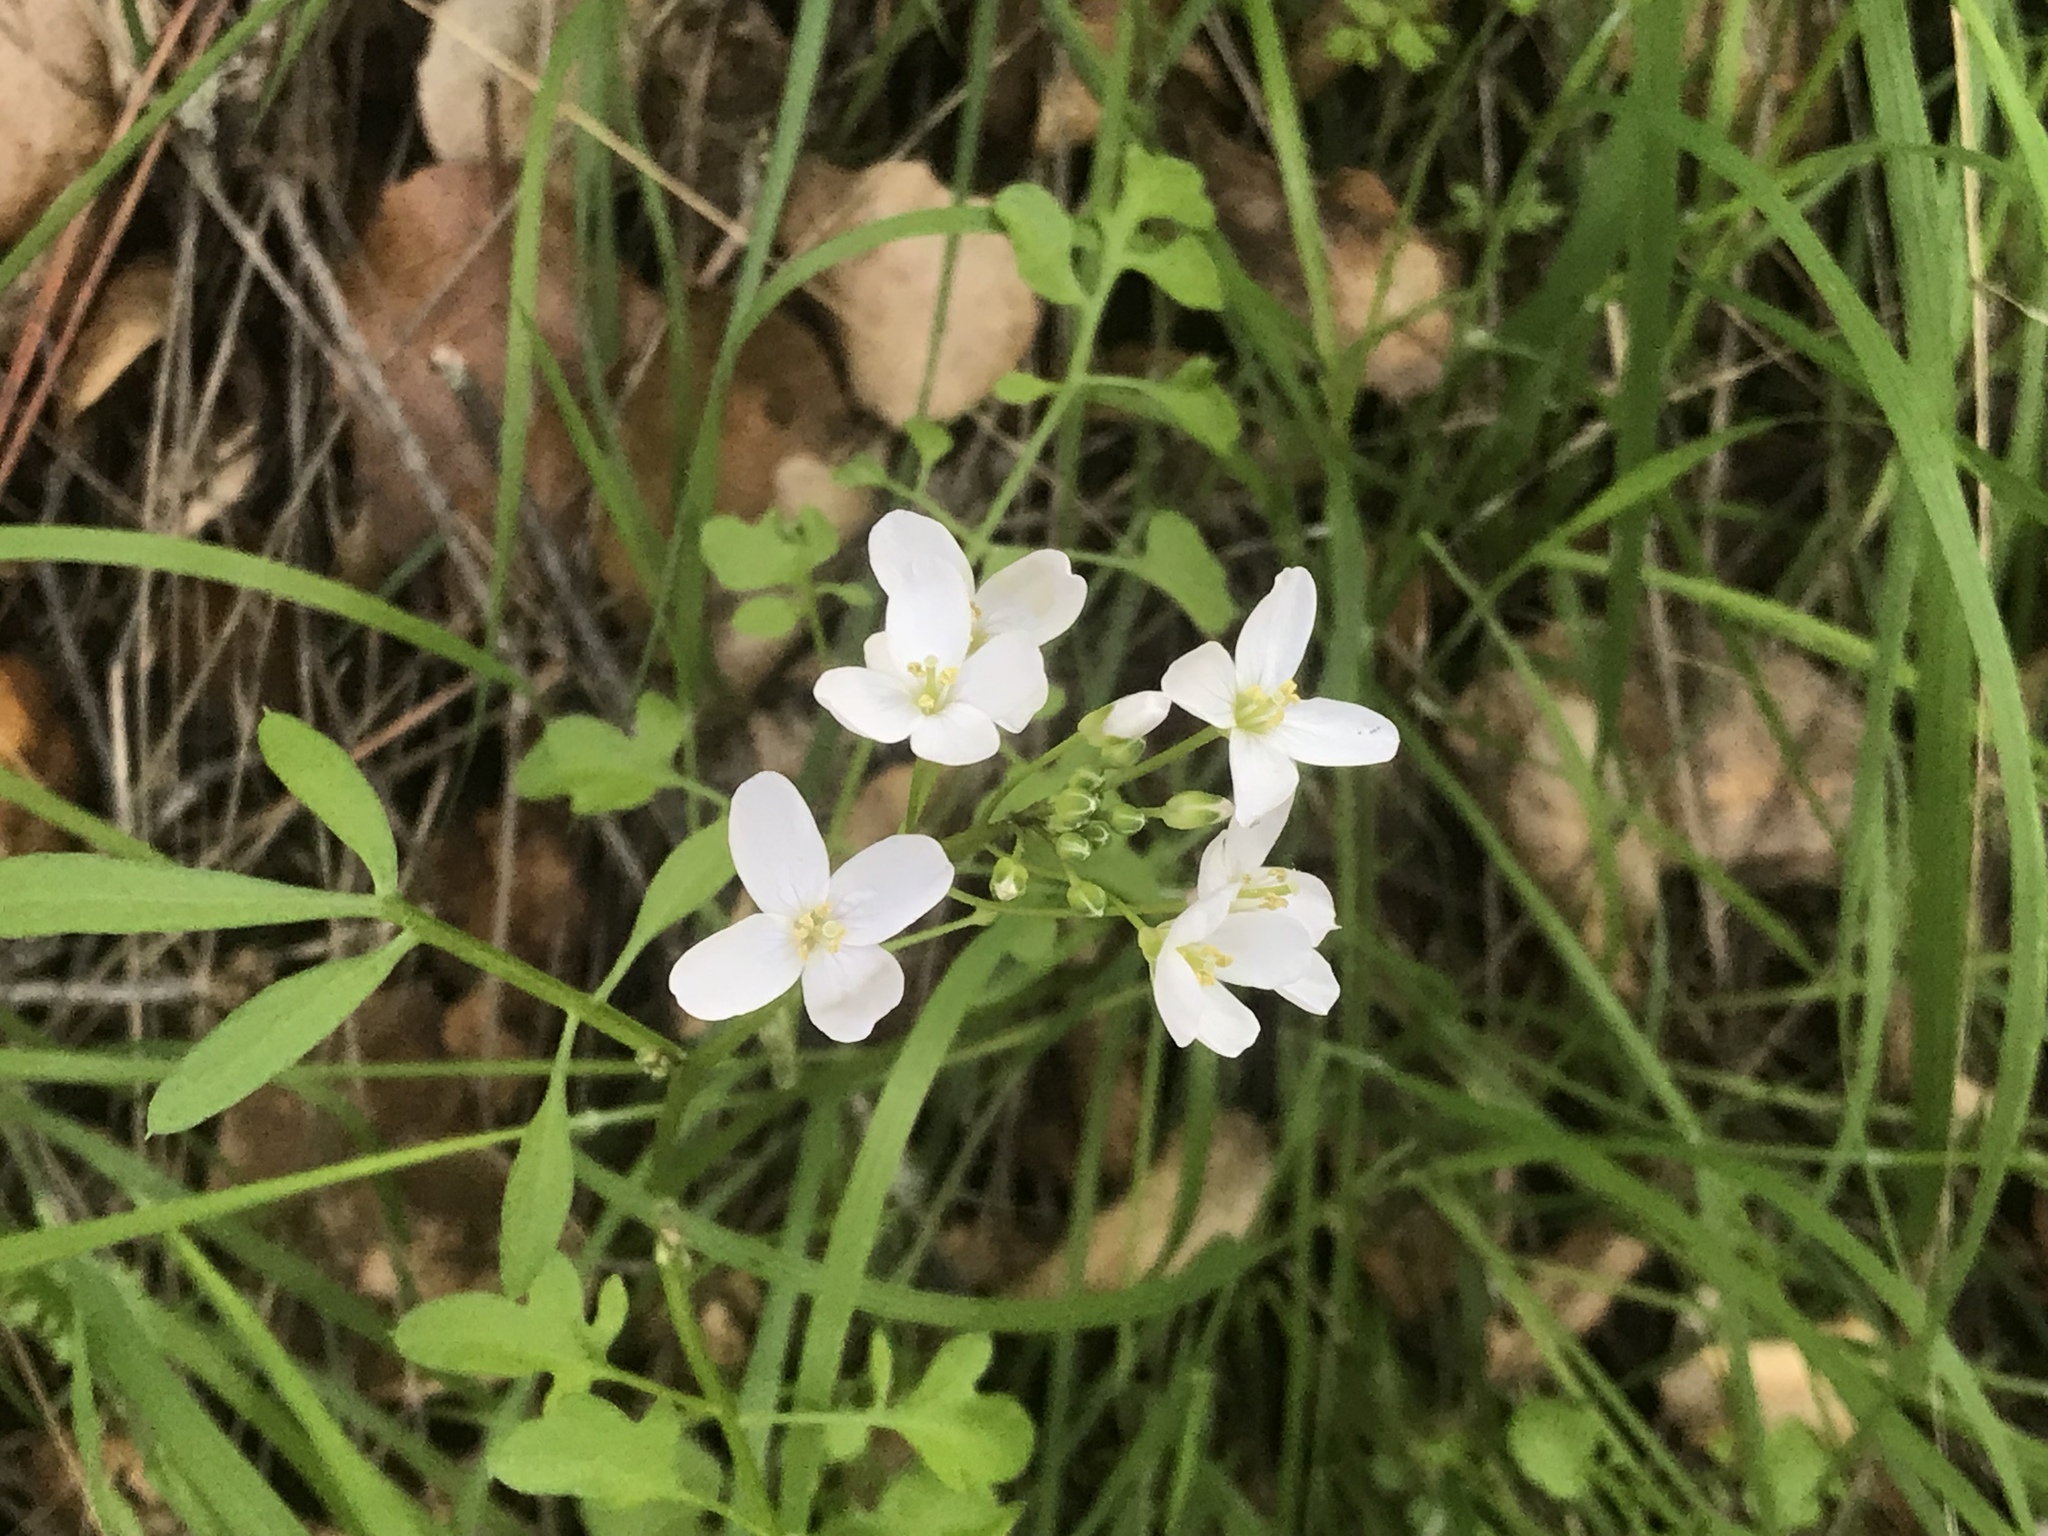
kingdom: Plantae
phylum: Tracheophyta
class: Magnoliopsida
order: Brassicales
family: Brassicaceae
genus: Cardamine
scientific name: Cardamine californica
